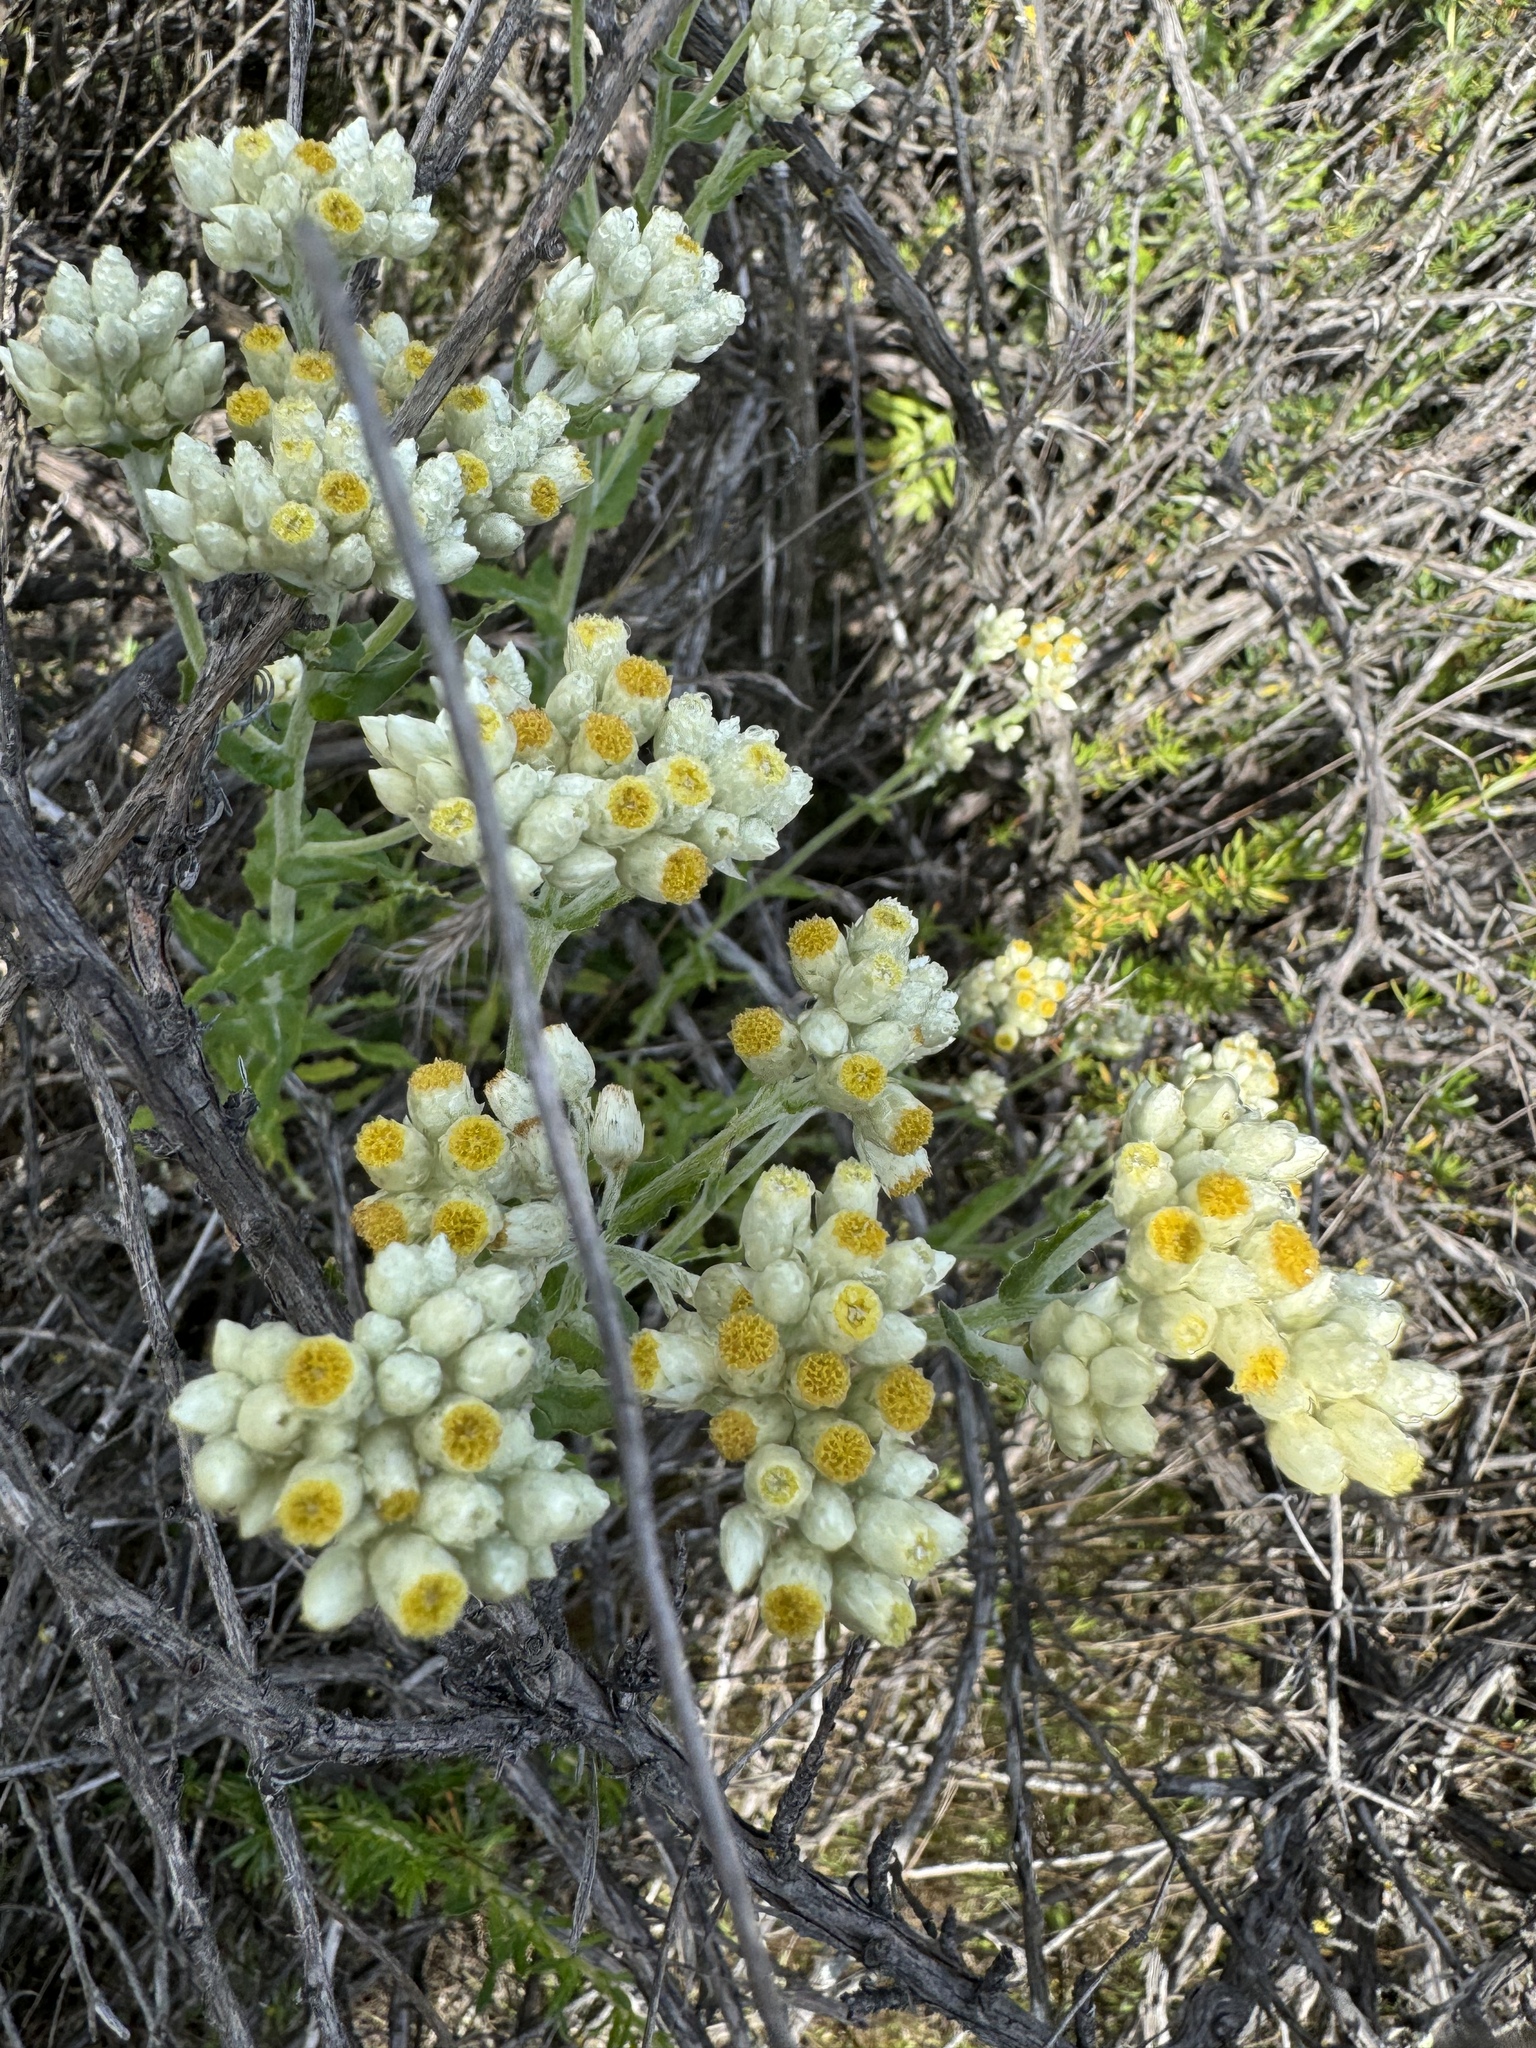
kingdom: Plantae
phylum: Tracheophyta
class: Magnoliopsida
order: Asterales
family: Asteraceae
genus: Pseudognaphalium
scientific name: Pseudognaphalium biolettii
